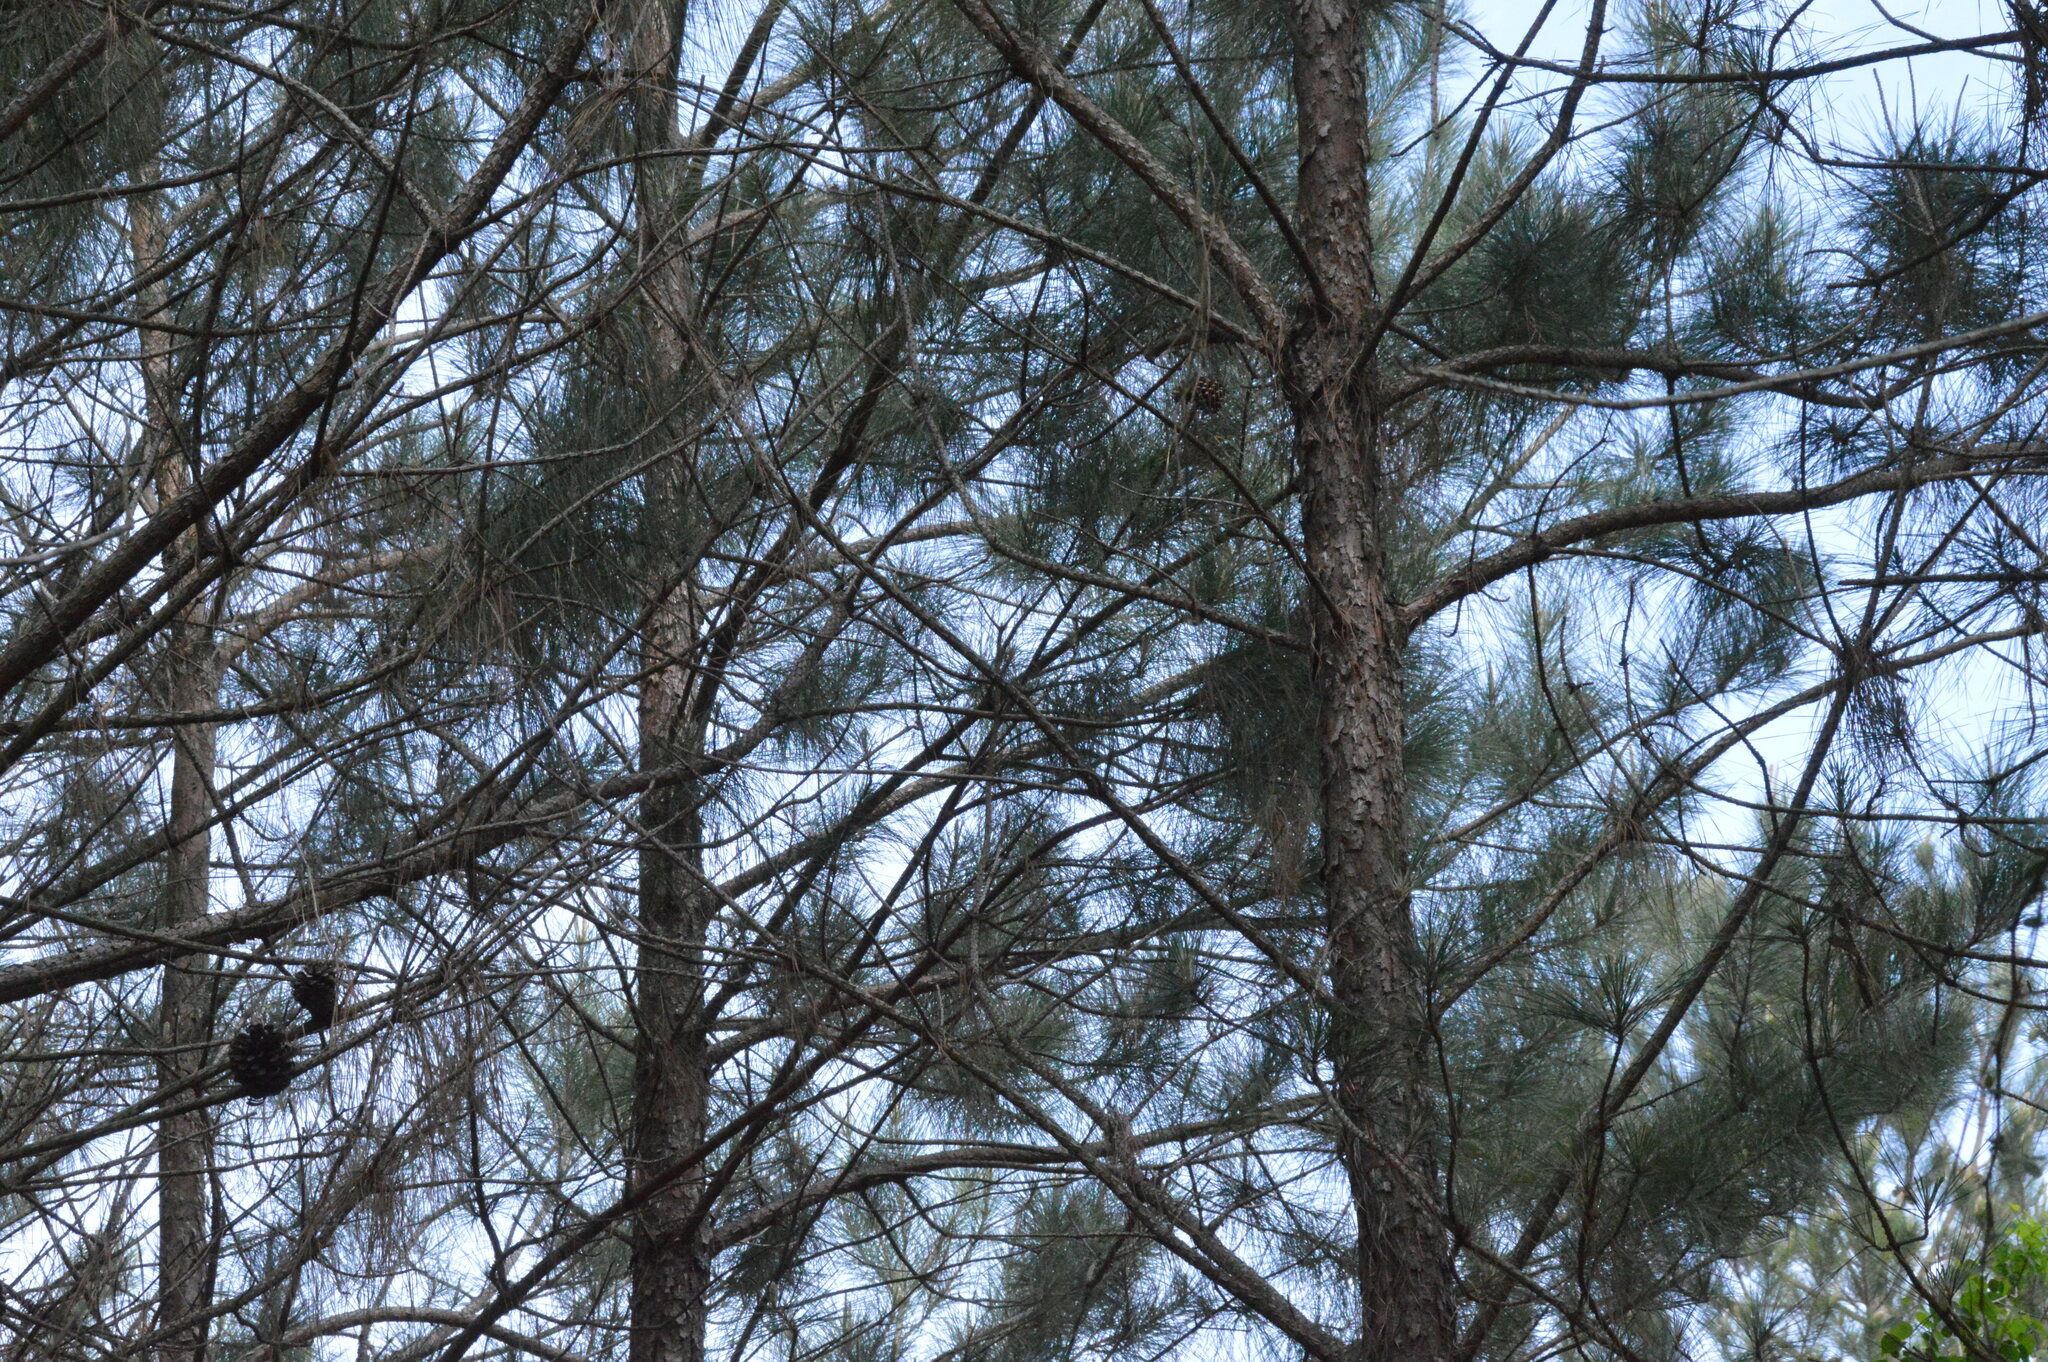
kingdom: Plantae
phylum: Tracheophyta
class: Pinopsida
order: Pinales
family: Pinaceae
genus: Pinus
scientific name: Pinus taeda
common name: Loblolly pine
